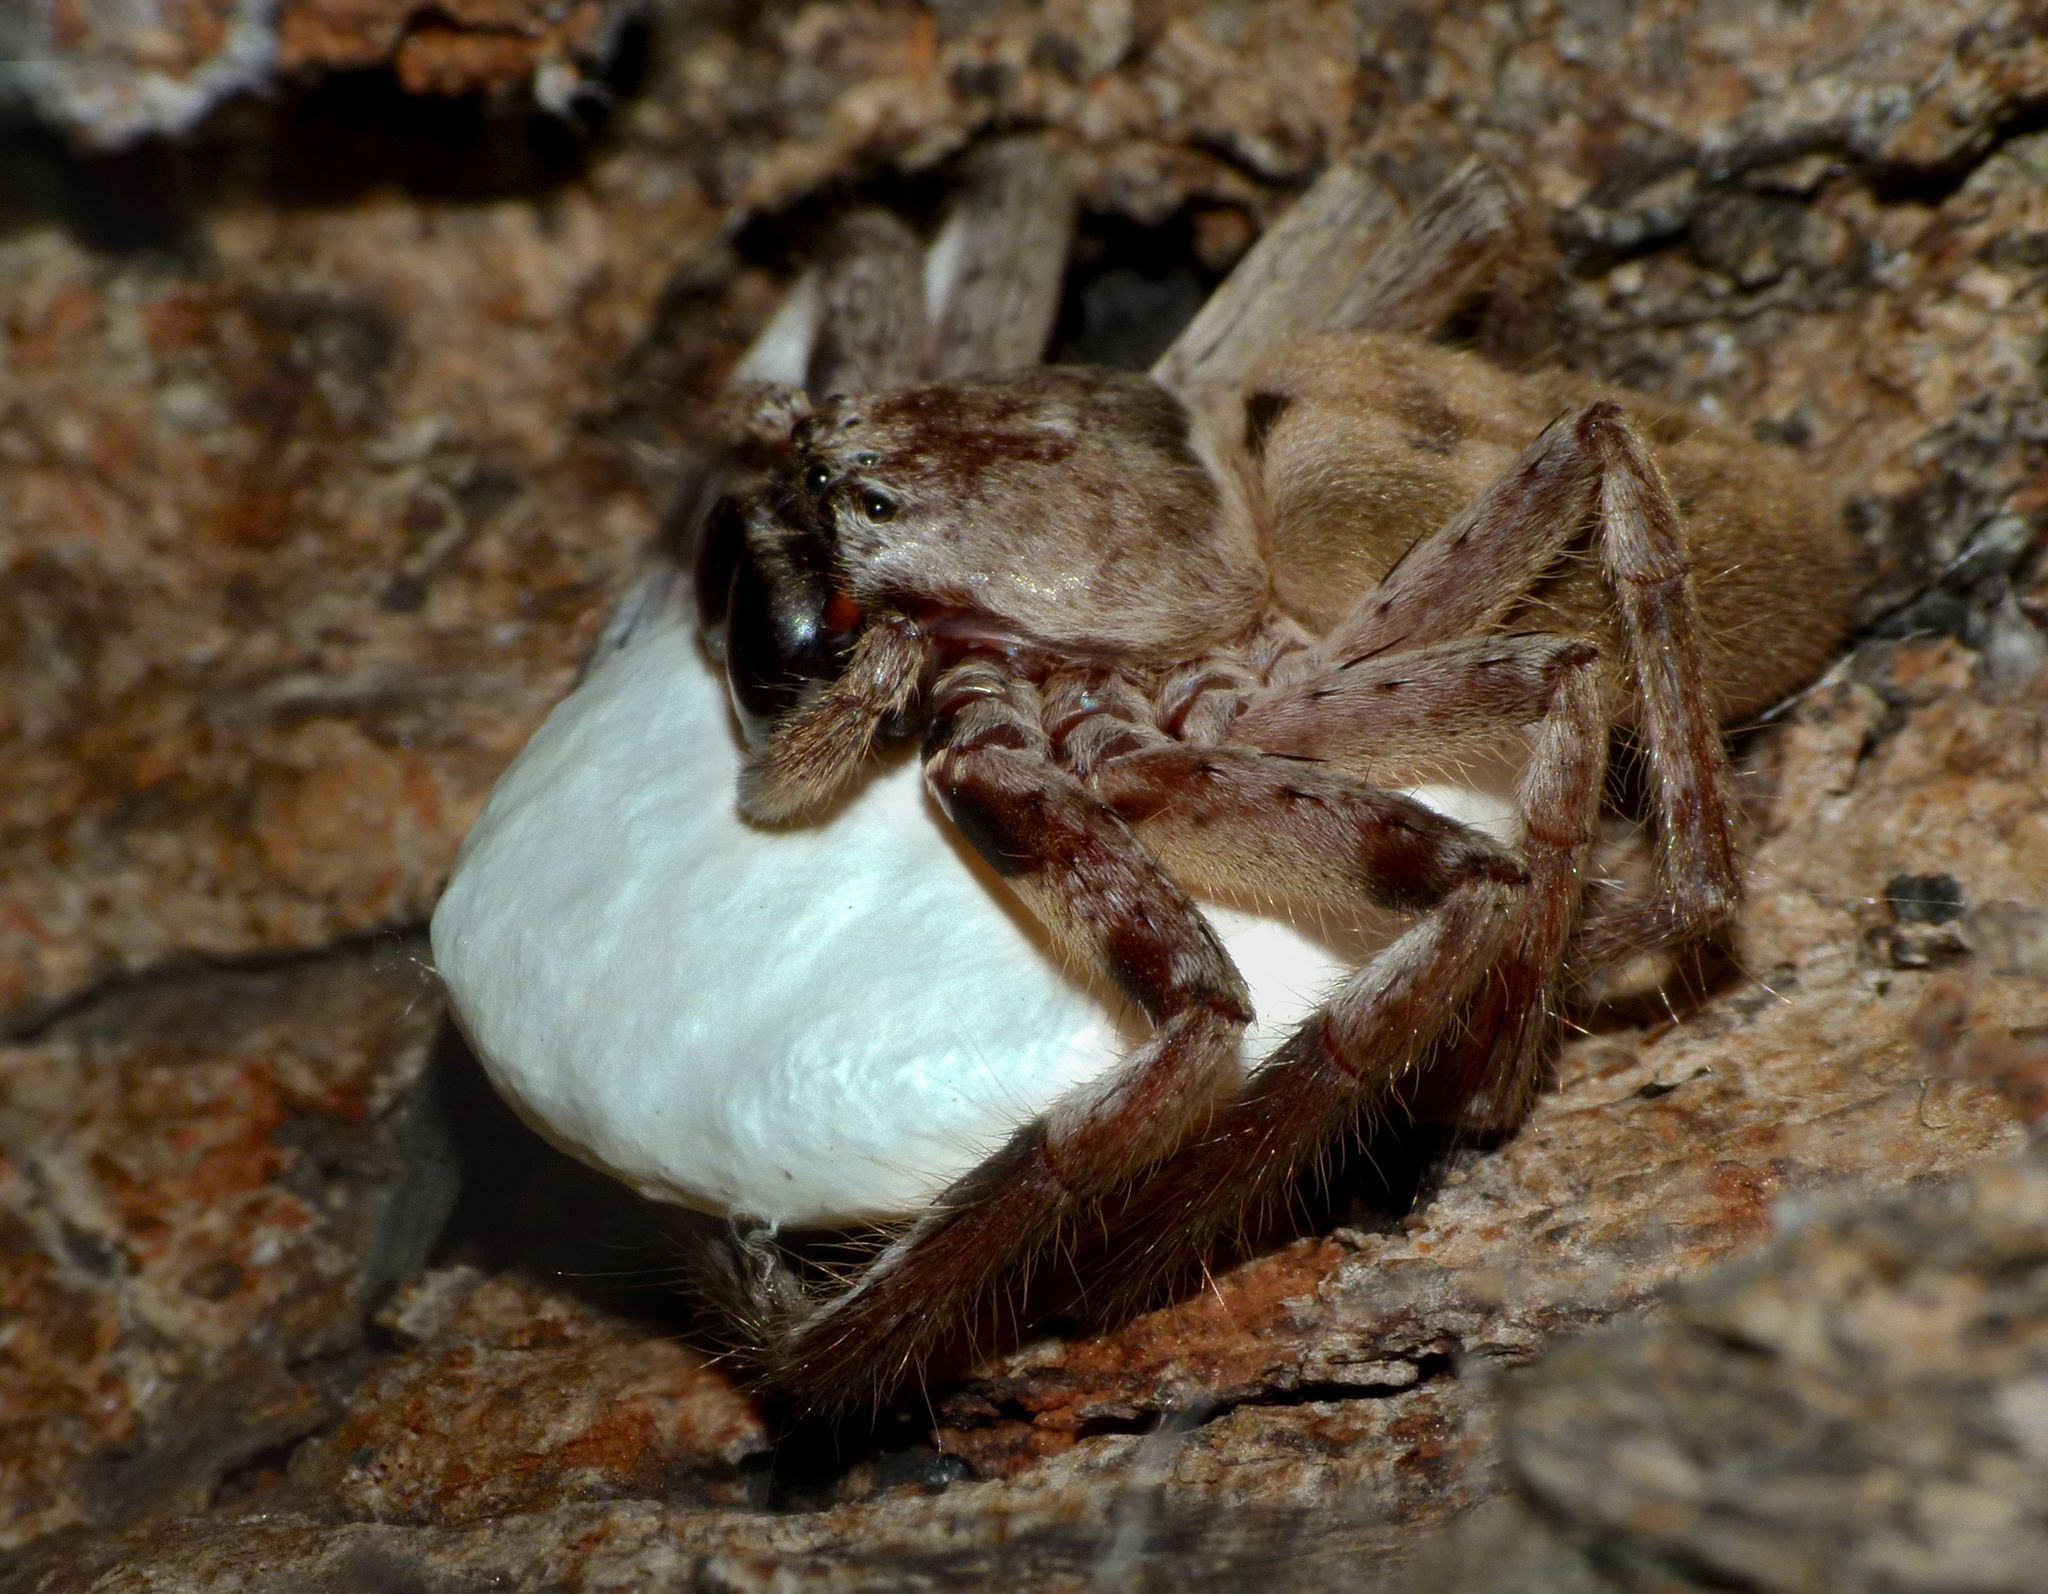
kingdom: Animalia
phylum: Arthropoda
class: Arachnida
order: Araneae
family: Sparassidae
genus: Isopeda
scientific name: Isopeda vasta
